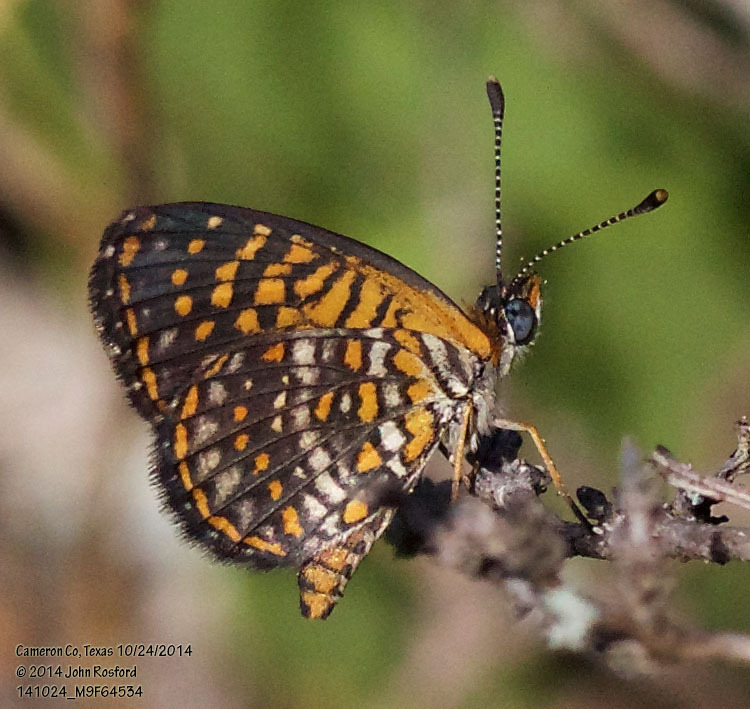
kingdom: Animalia
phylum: Arthropoda
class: Insecta
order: Lepidoptera
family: Nymphalidae
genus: Texola
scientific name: Texola elada
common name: Elada checkerspot
